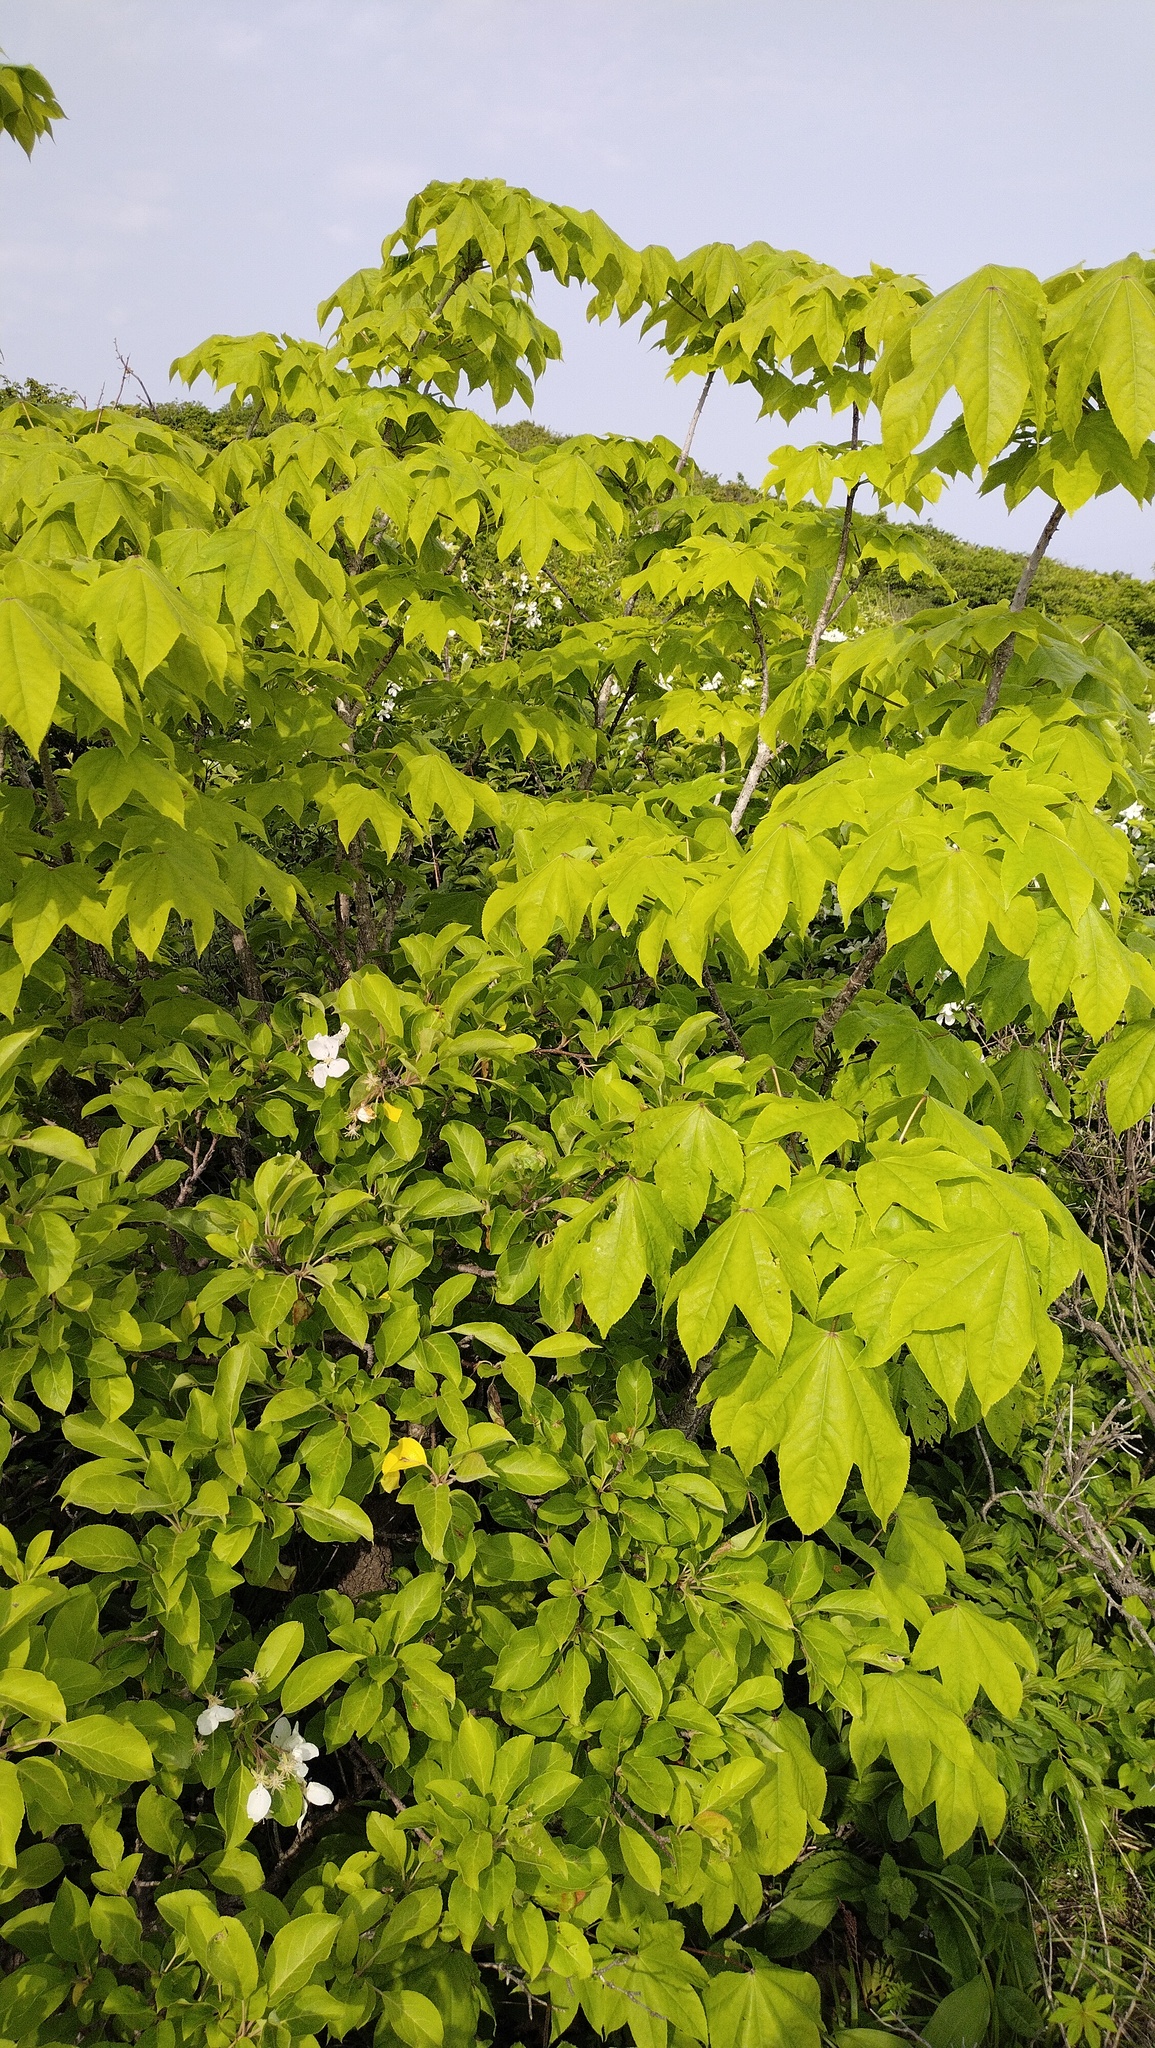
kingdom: Plantae
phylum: Tracheophyta
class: Magnoliopsida
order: Apiales
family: Araliaceae
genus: Kalopanax
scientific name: Kalopanax septemlobus
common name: Castor aralia
